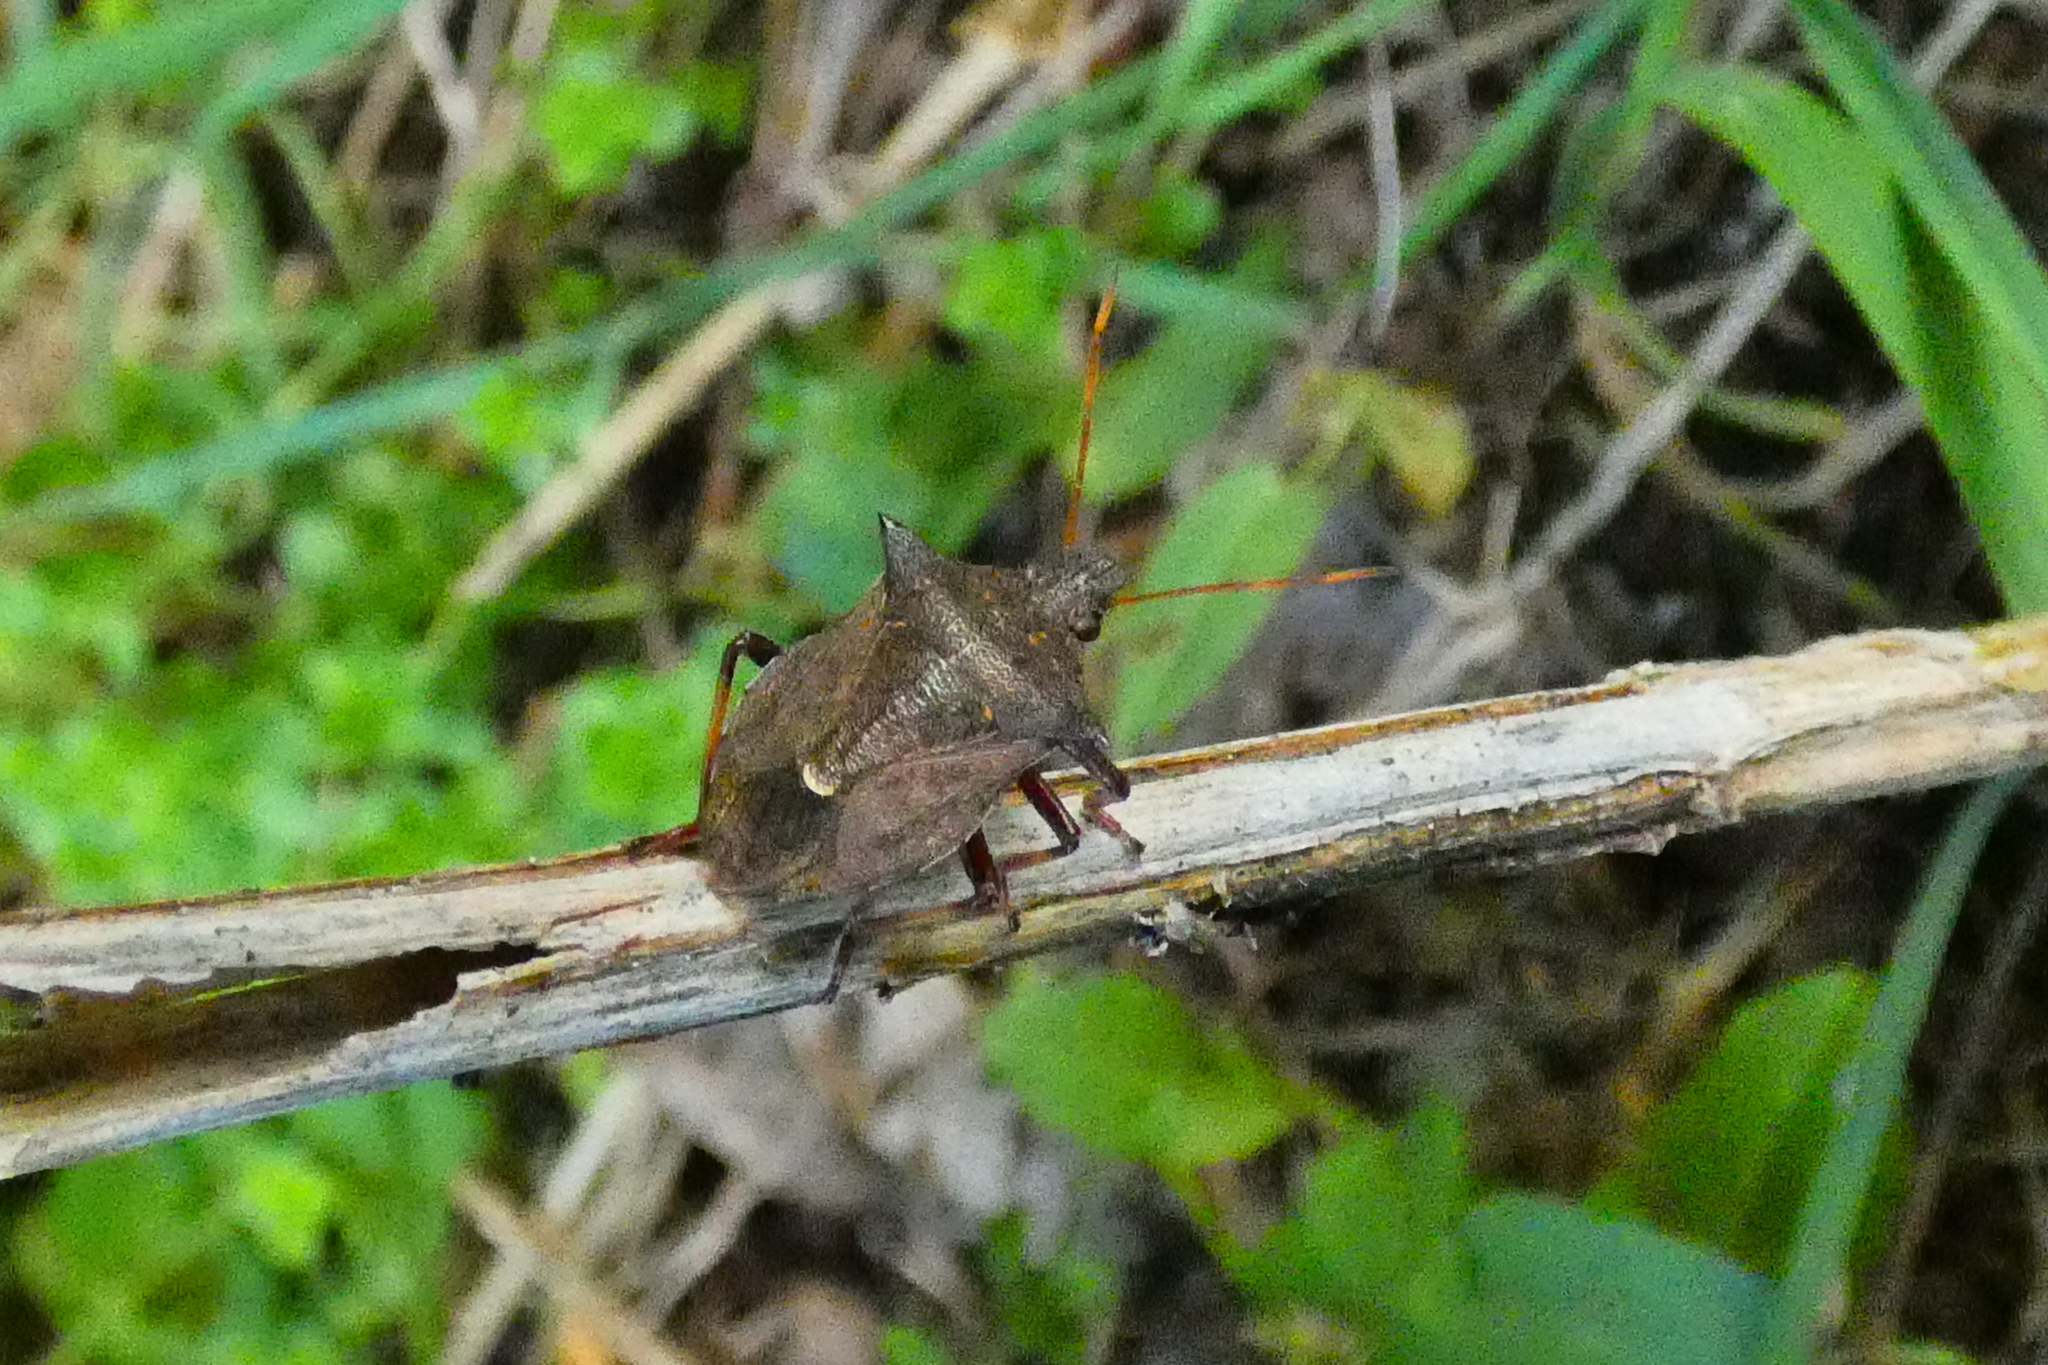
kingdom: Animalia
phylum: Arthropoda
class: Insecta
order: Hemiptera
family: Pentatomidae
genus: Picromerus
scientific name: Picromerus bidens
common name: Spiked shieldbug
